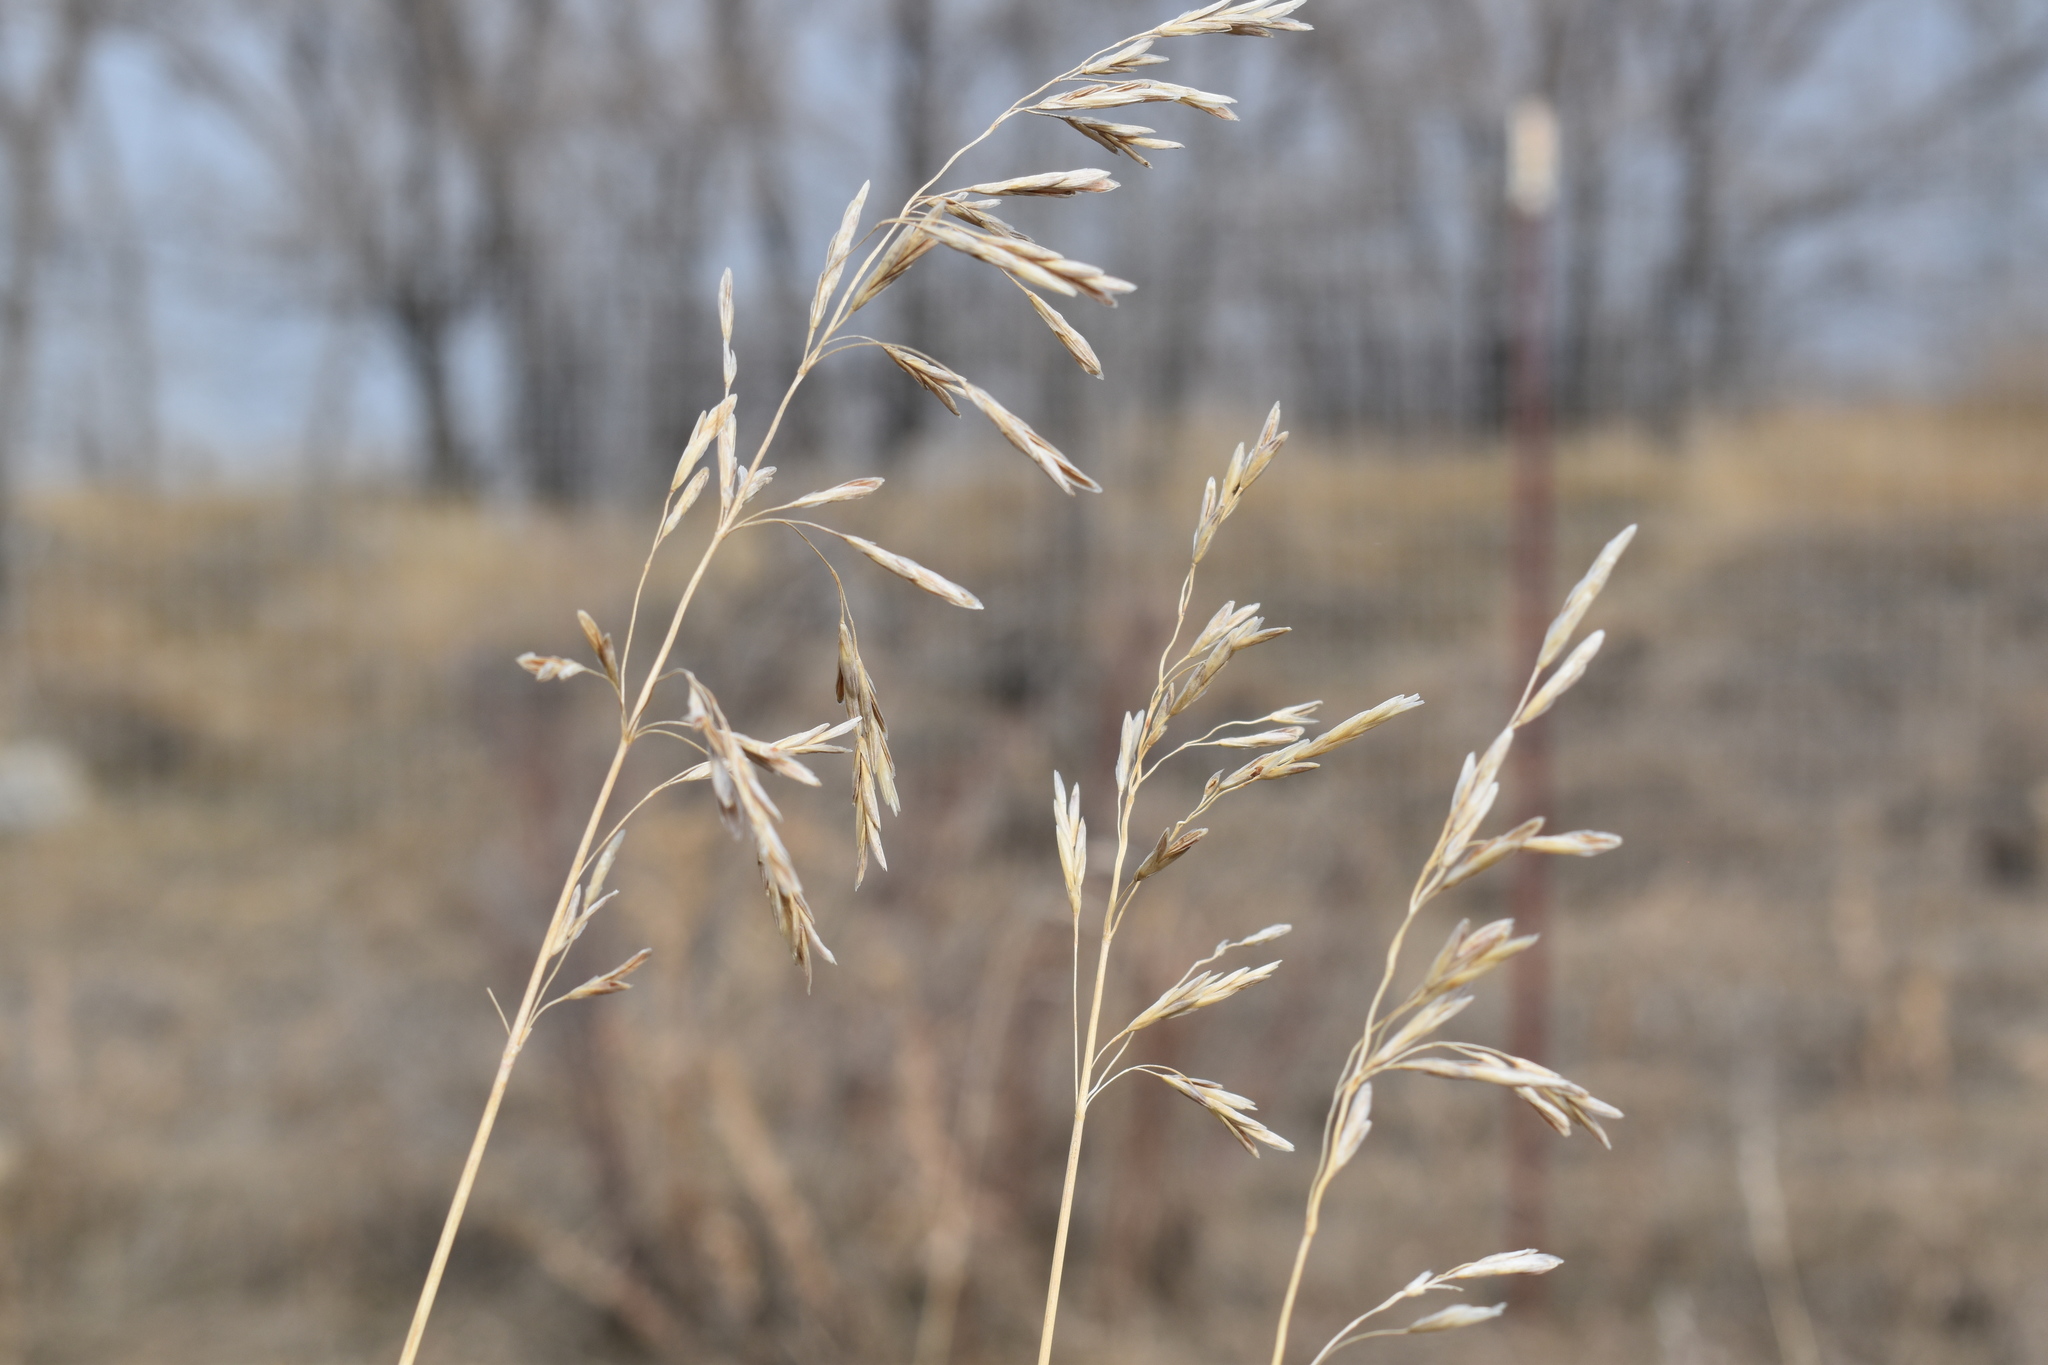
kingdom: Plantae
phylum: Tracheophyta
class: Liliopsida
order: Poales
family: Poaceae
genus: Bromus
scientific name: Bromus inermis
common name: Smooth brome
